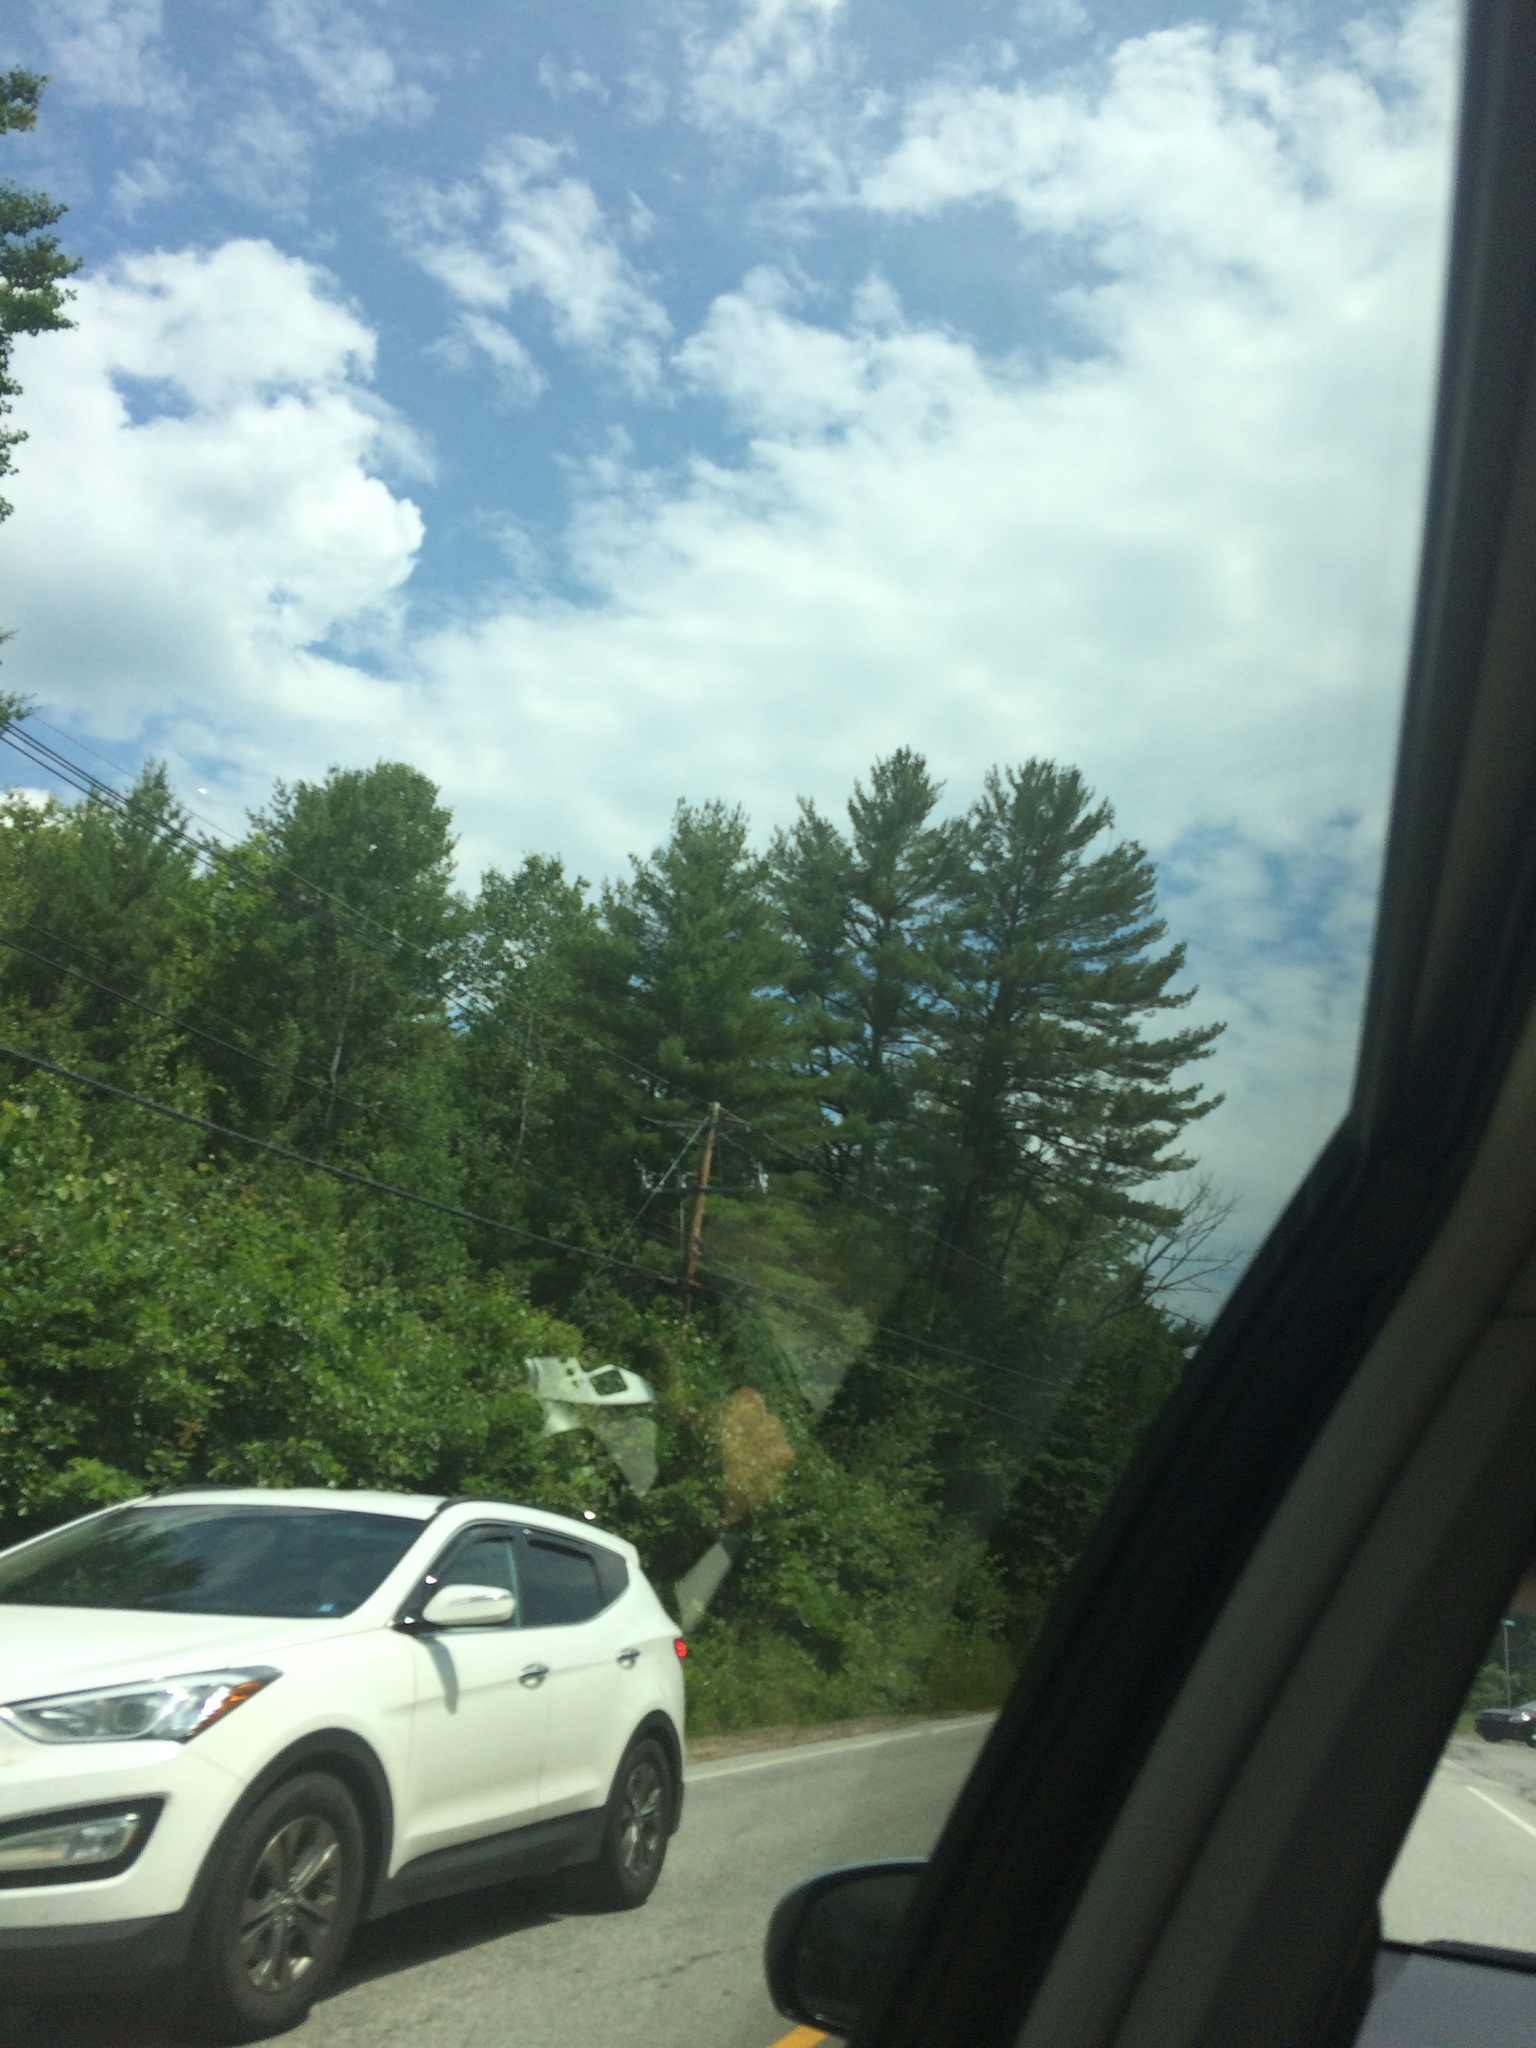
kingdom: Plantae
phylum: Tracheophyta
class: Pinopsida
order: Pinales
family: Pinaceae
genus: Pinus
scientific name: Pinus strobus
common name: Weymouth pine
